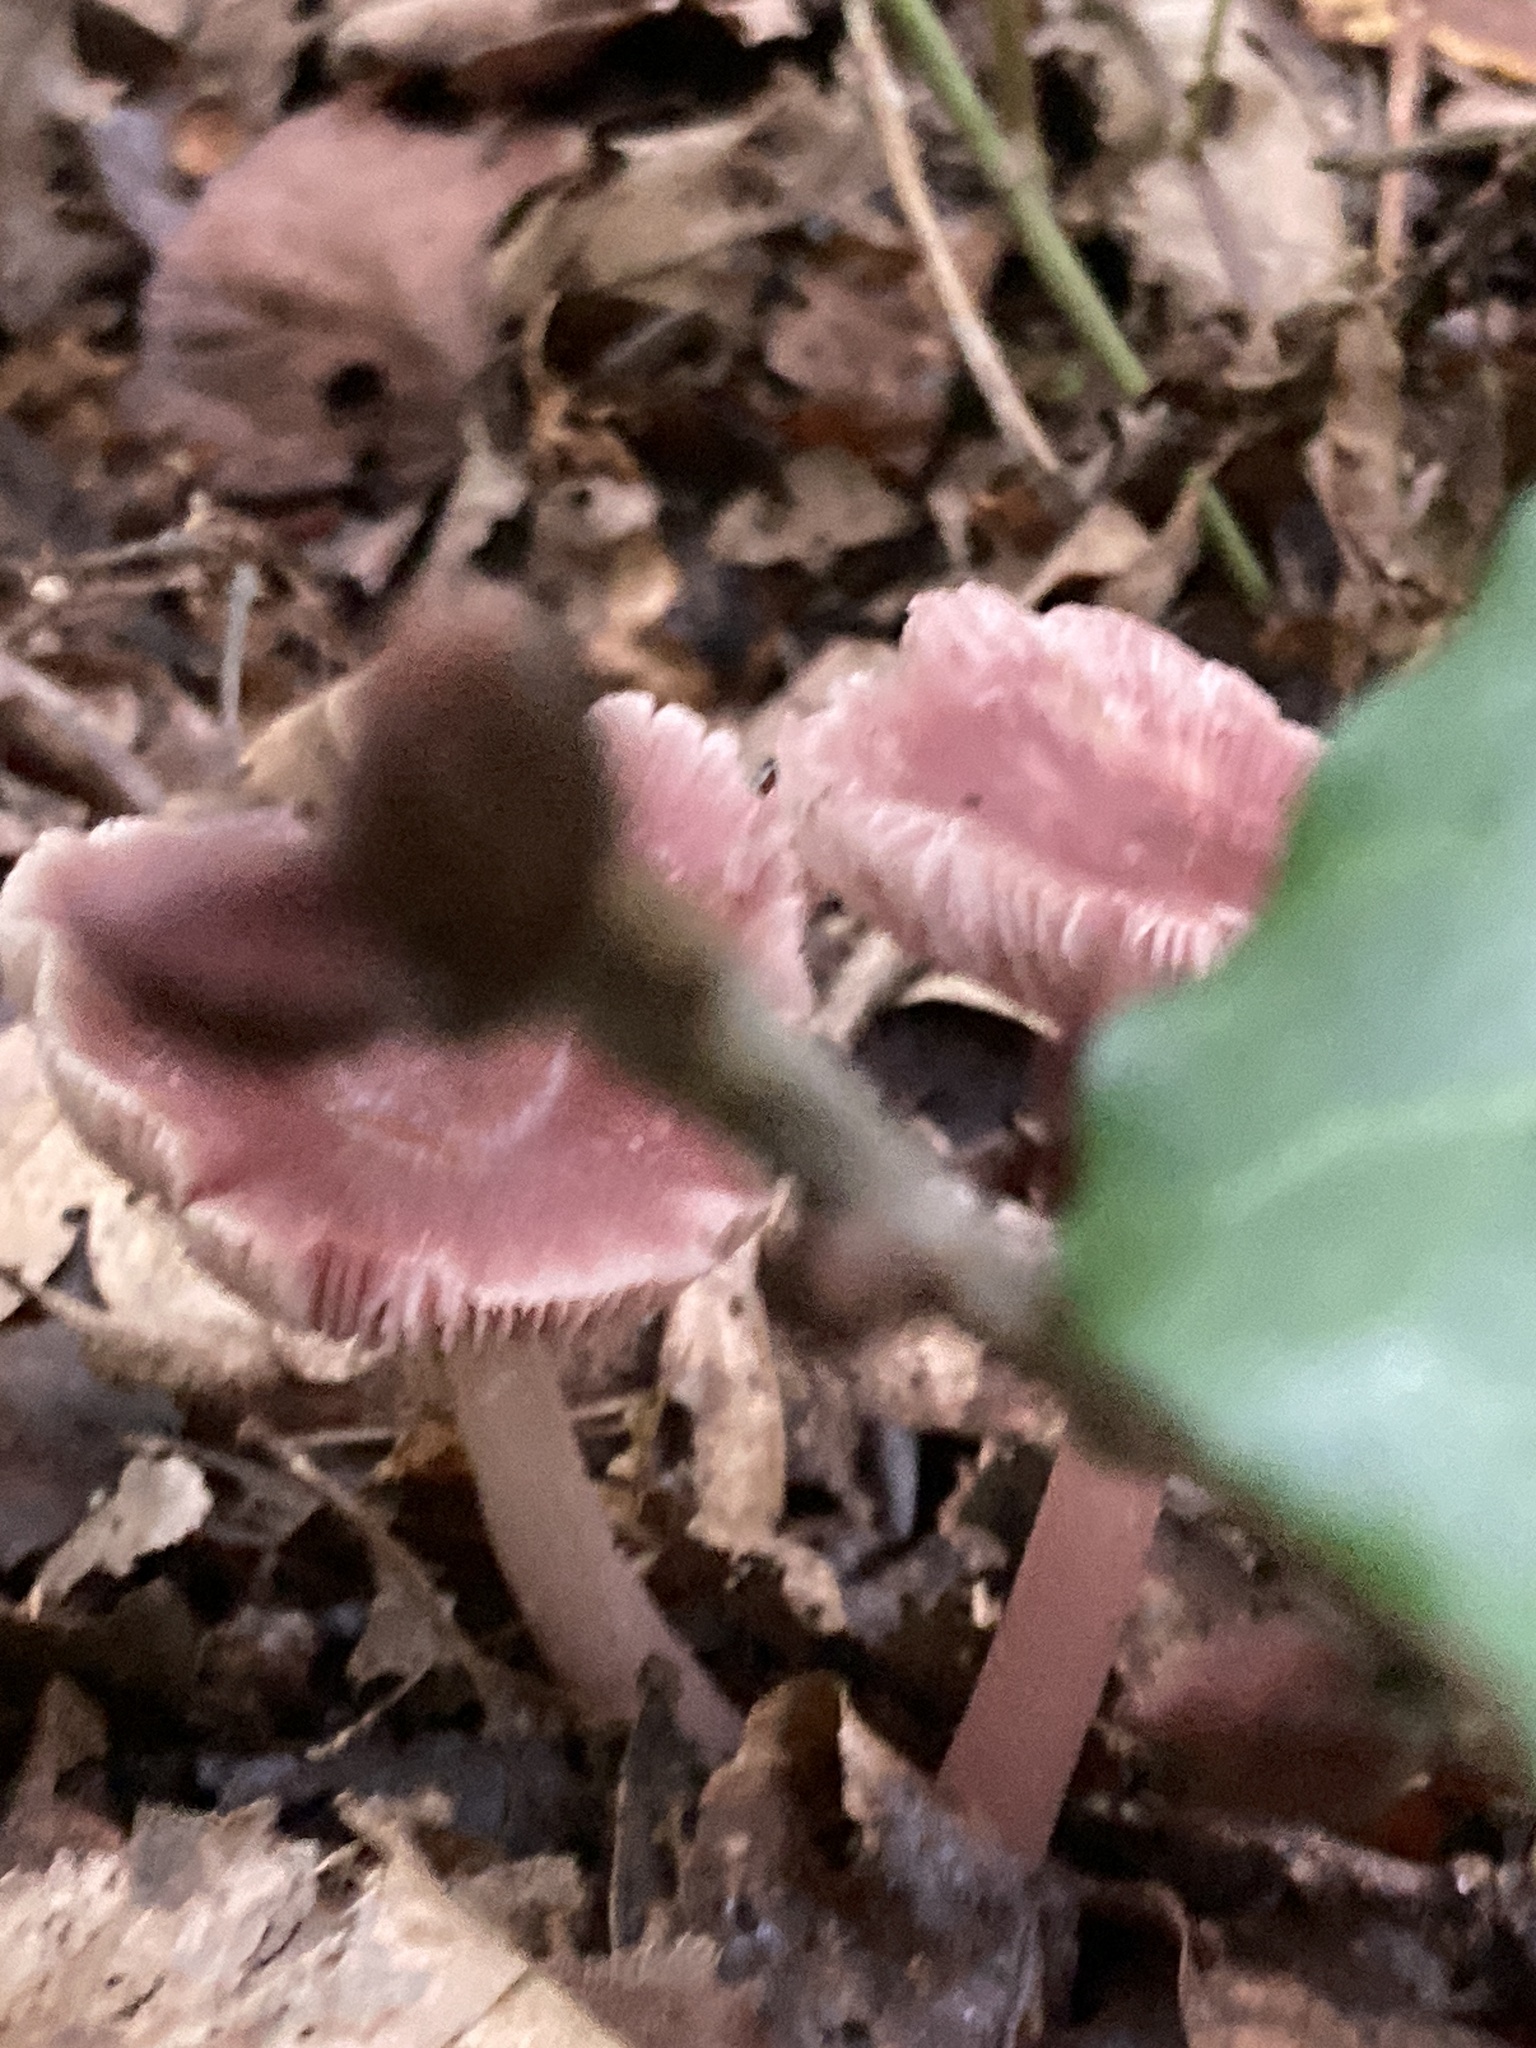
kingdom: Fungi
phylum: Basidiomycota
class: Agaricomycetes
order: Agaricales
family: Mycenaceae
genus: Mycena
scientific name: Mycena rosea
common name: Rosy bonnet
